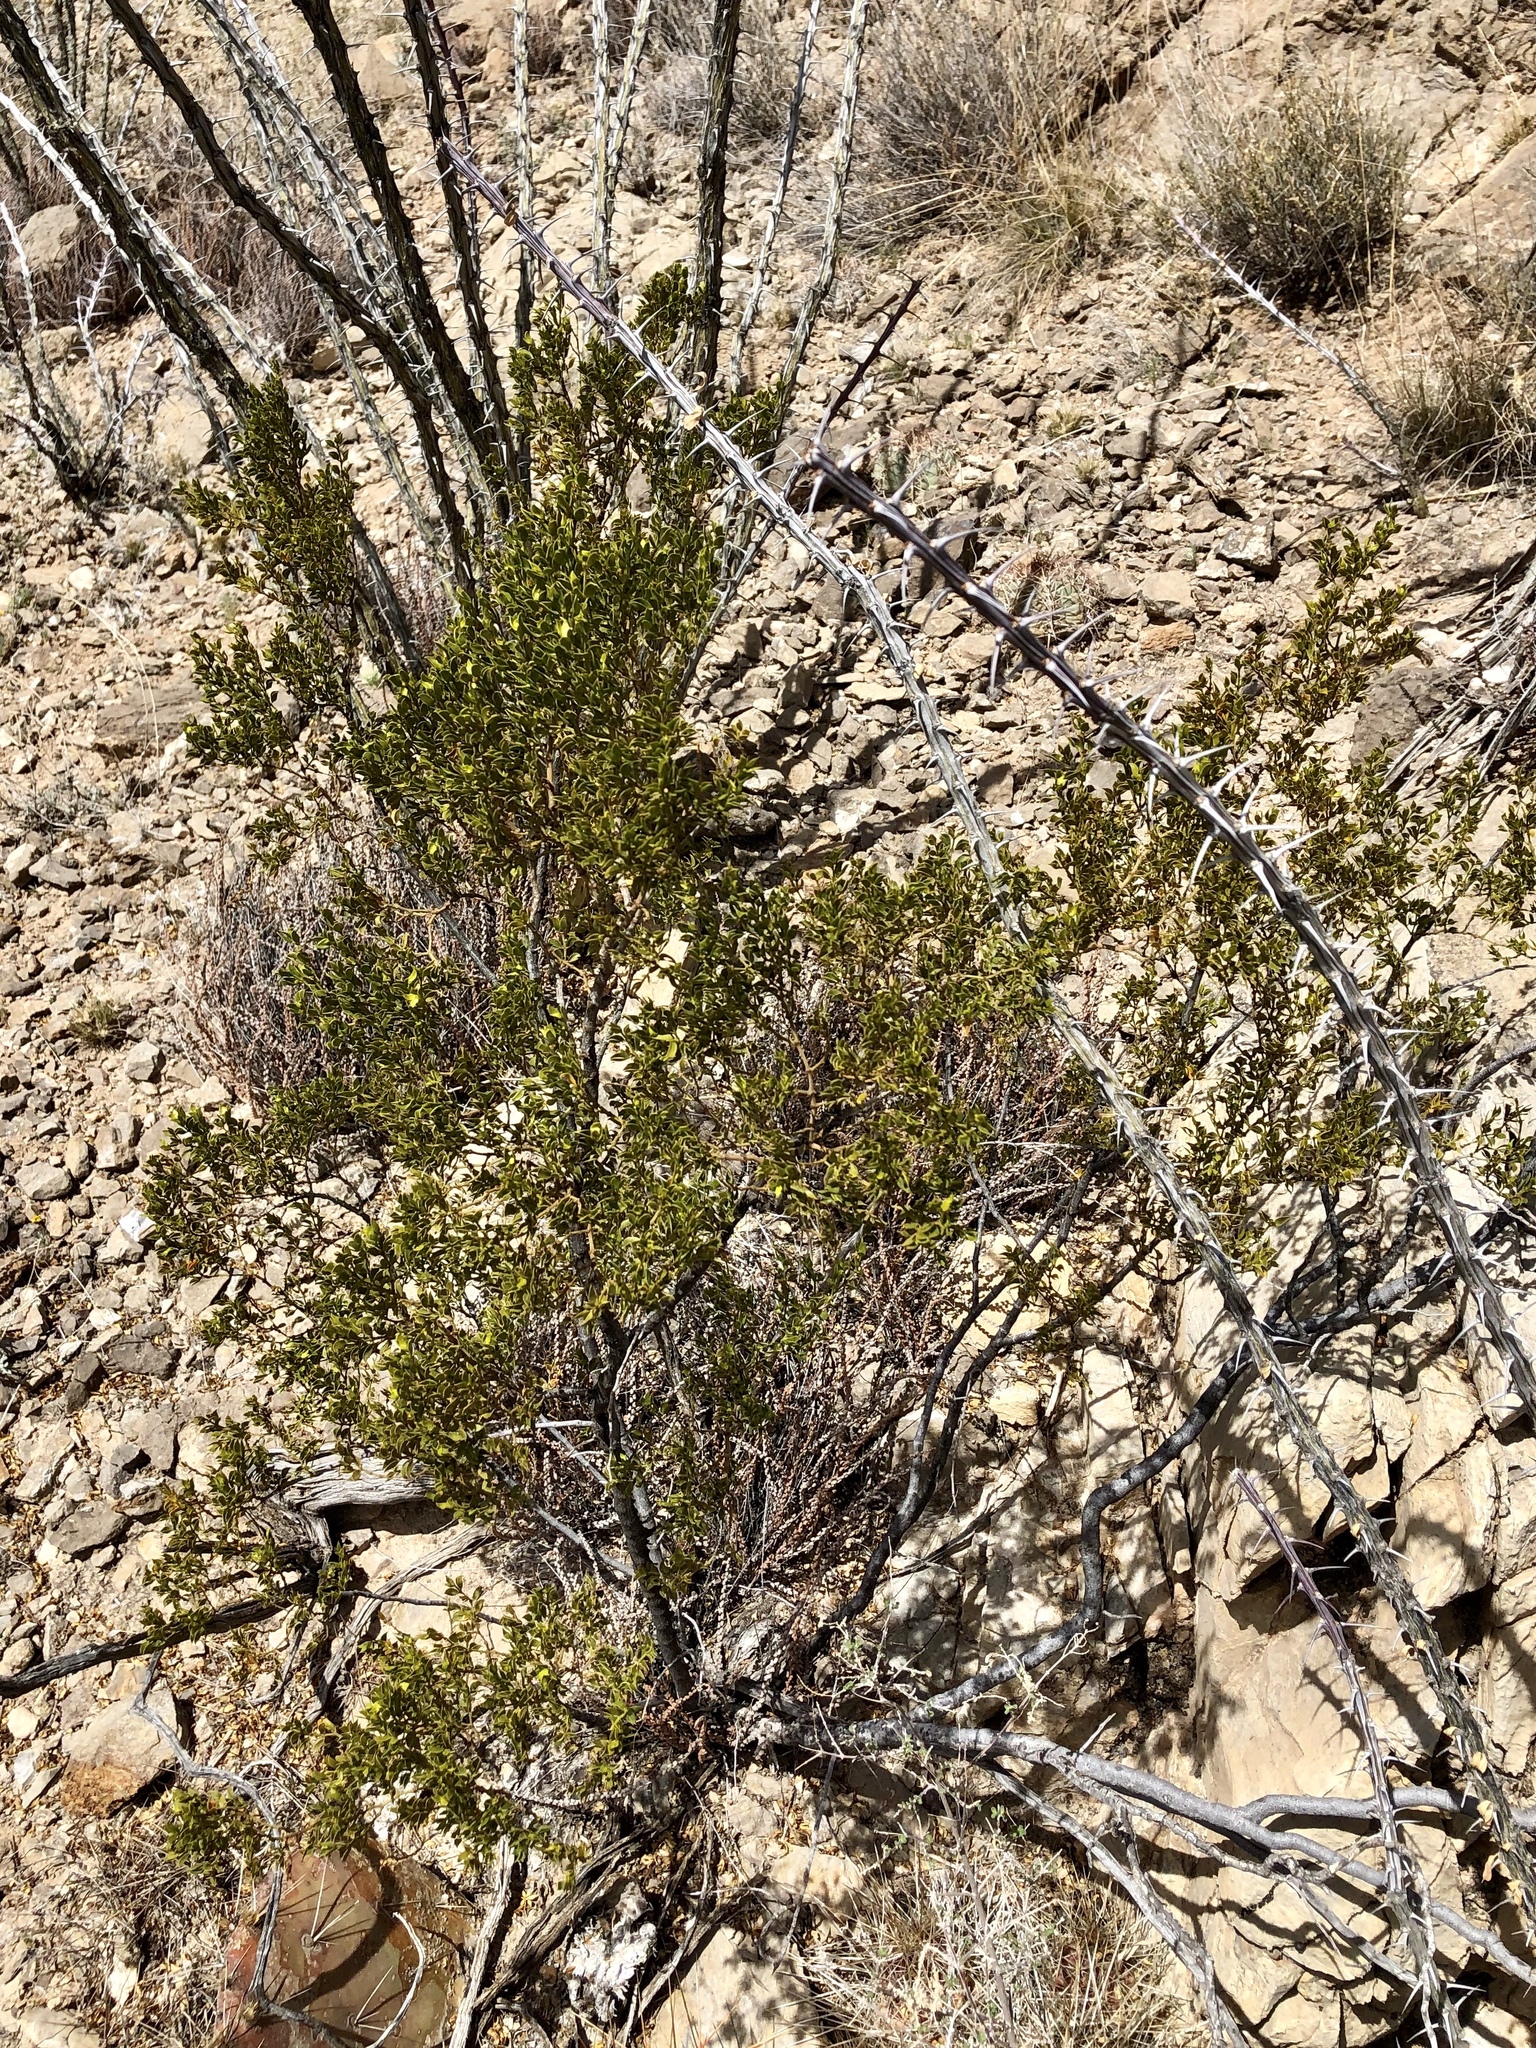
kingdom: Plantae
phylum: Tracheophyta
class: Magnoliopsida
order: Zygophyllales
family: Zygophyllaceae
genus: Larrea
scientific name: Larrea tridentata
